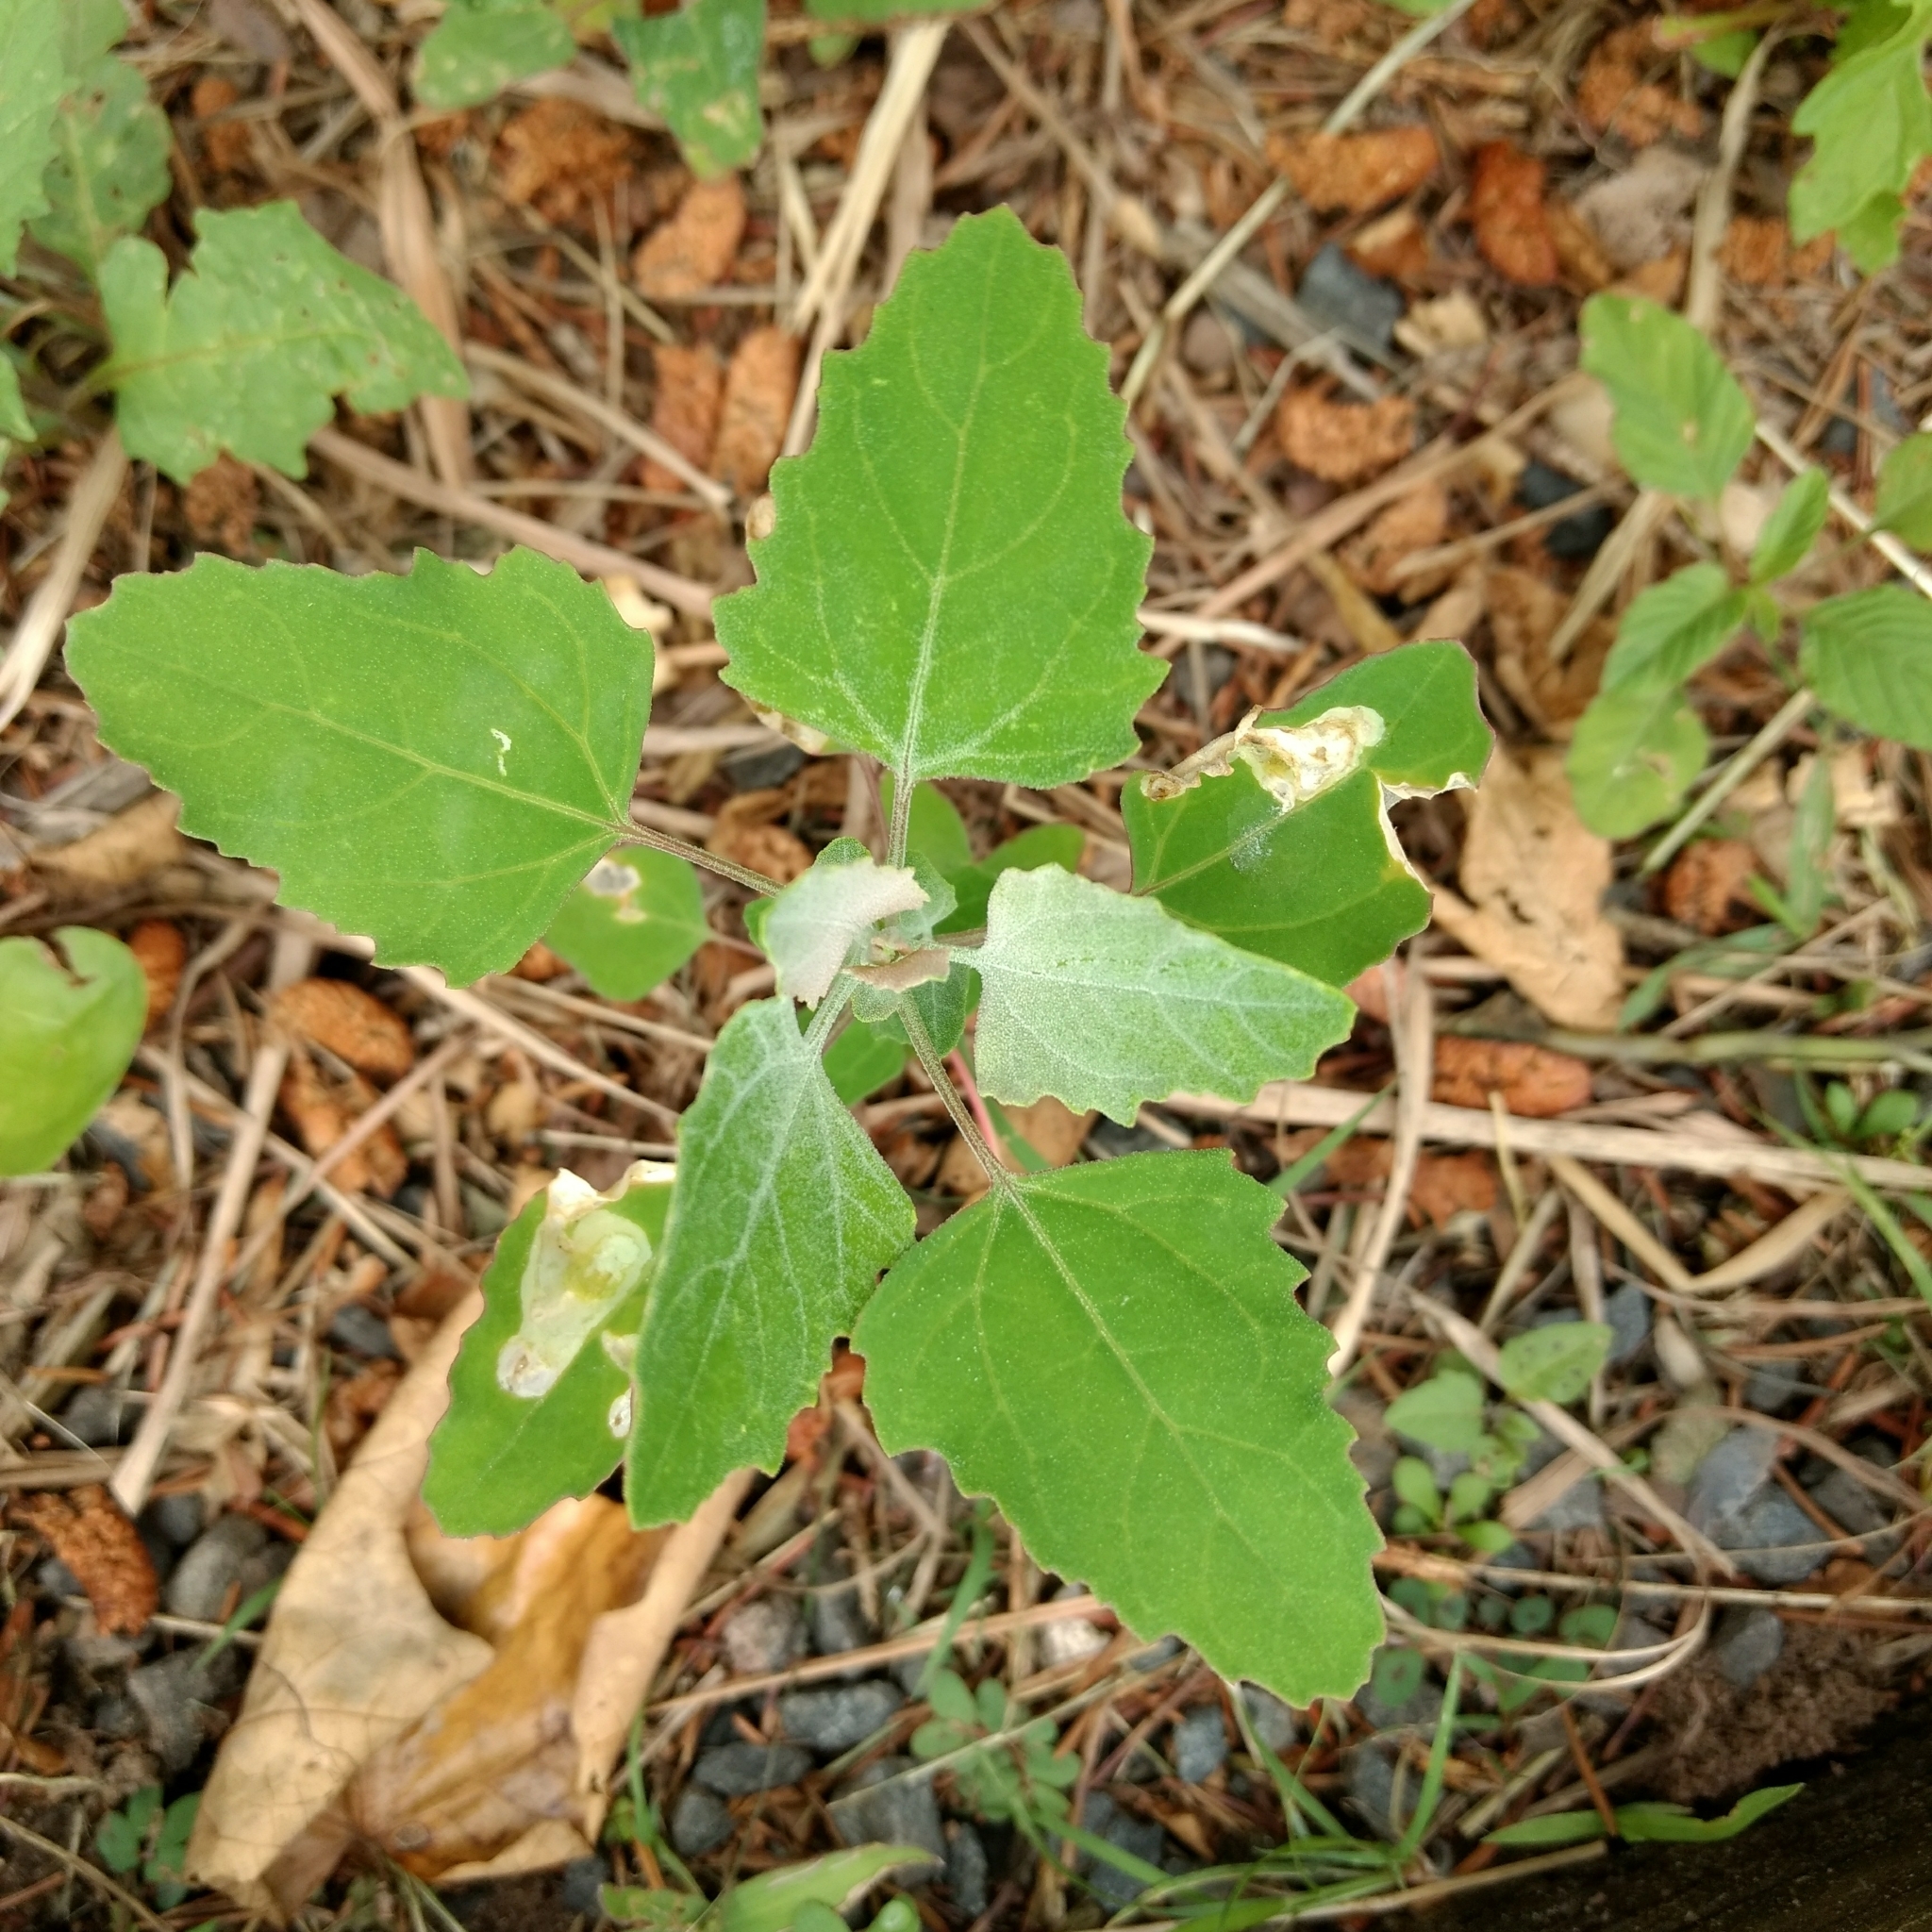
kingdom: Plantae
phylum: Tracheophyta
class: Magnoliopsida
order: Caryophyllales
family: Amaranthaceae
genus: Chenopodium
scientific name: Chenopodium album
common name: Fat-hen
